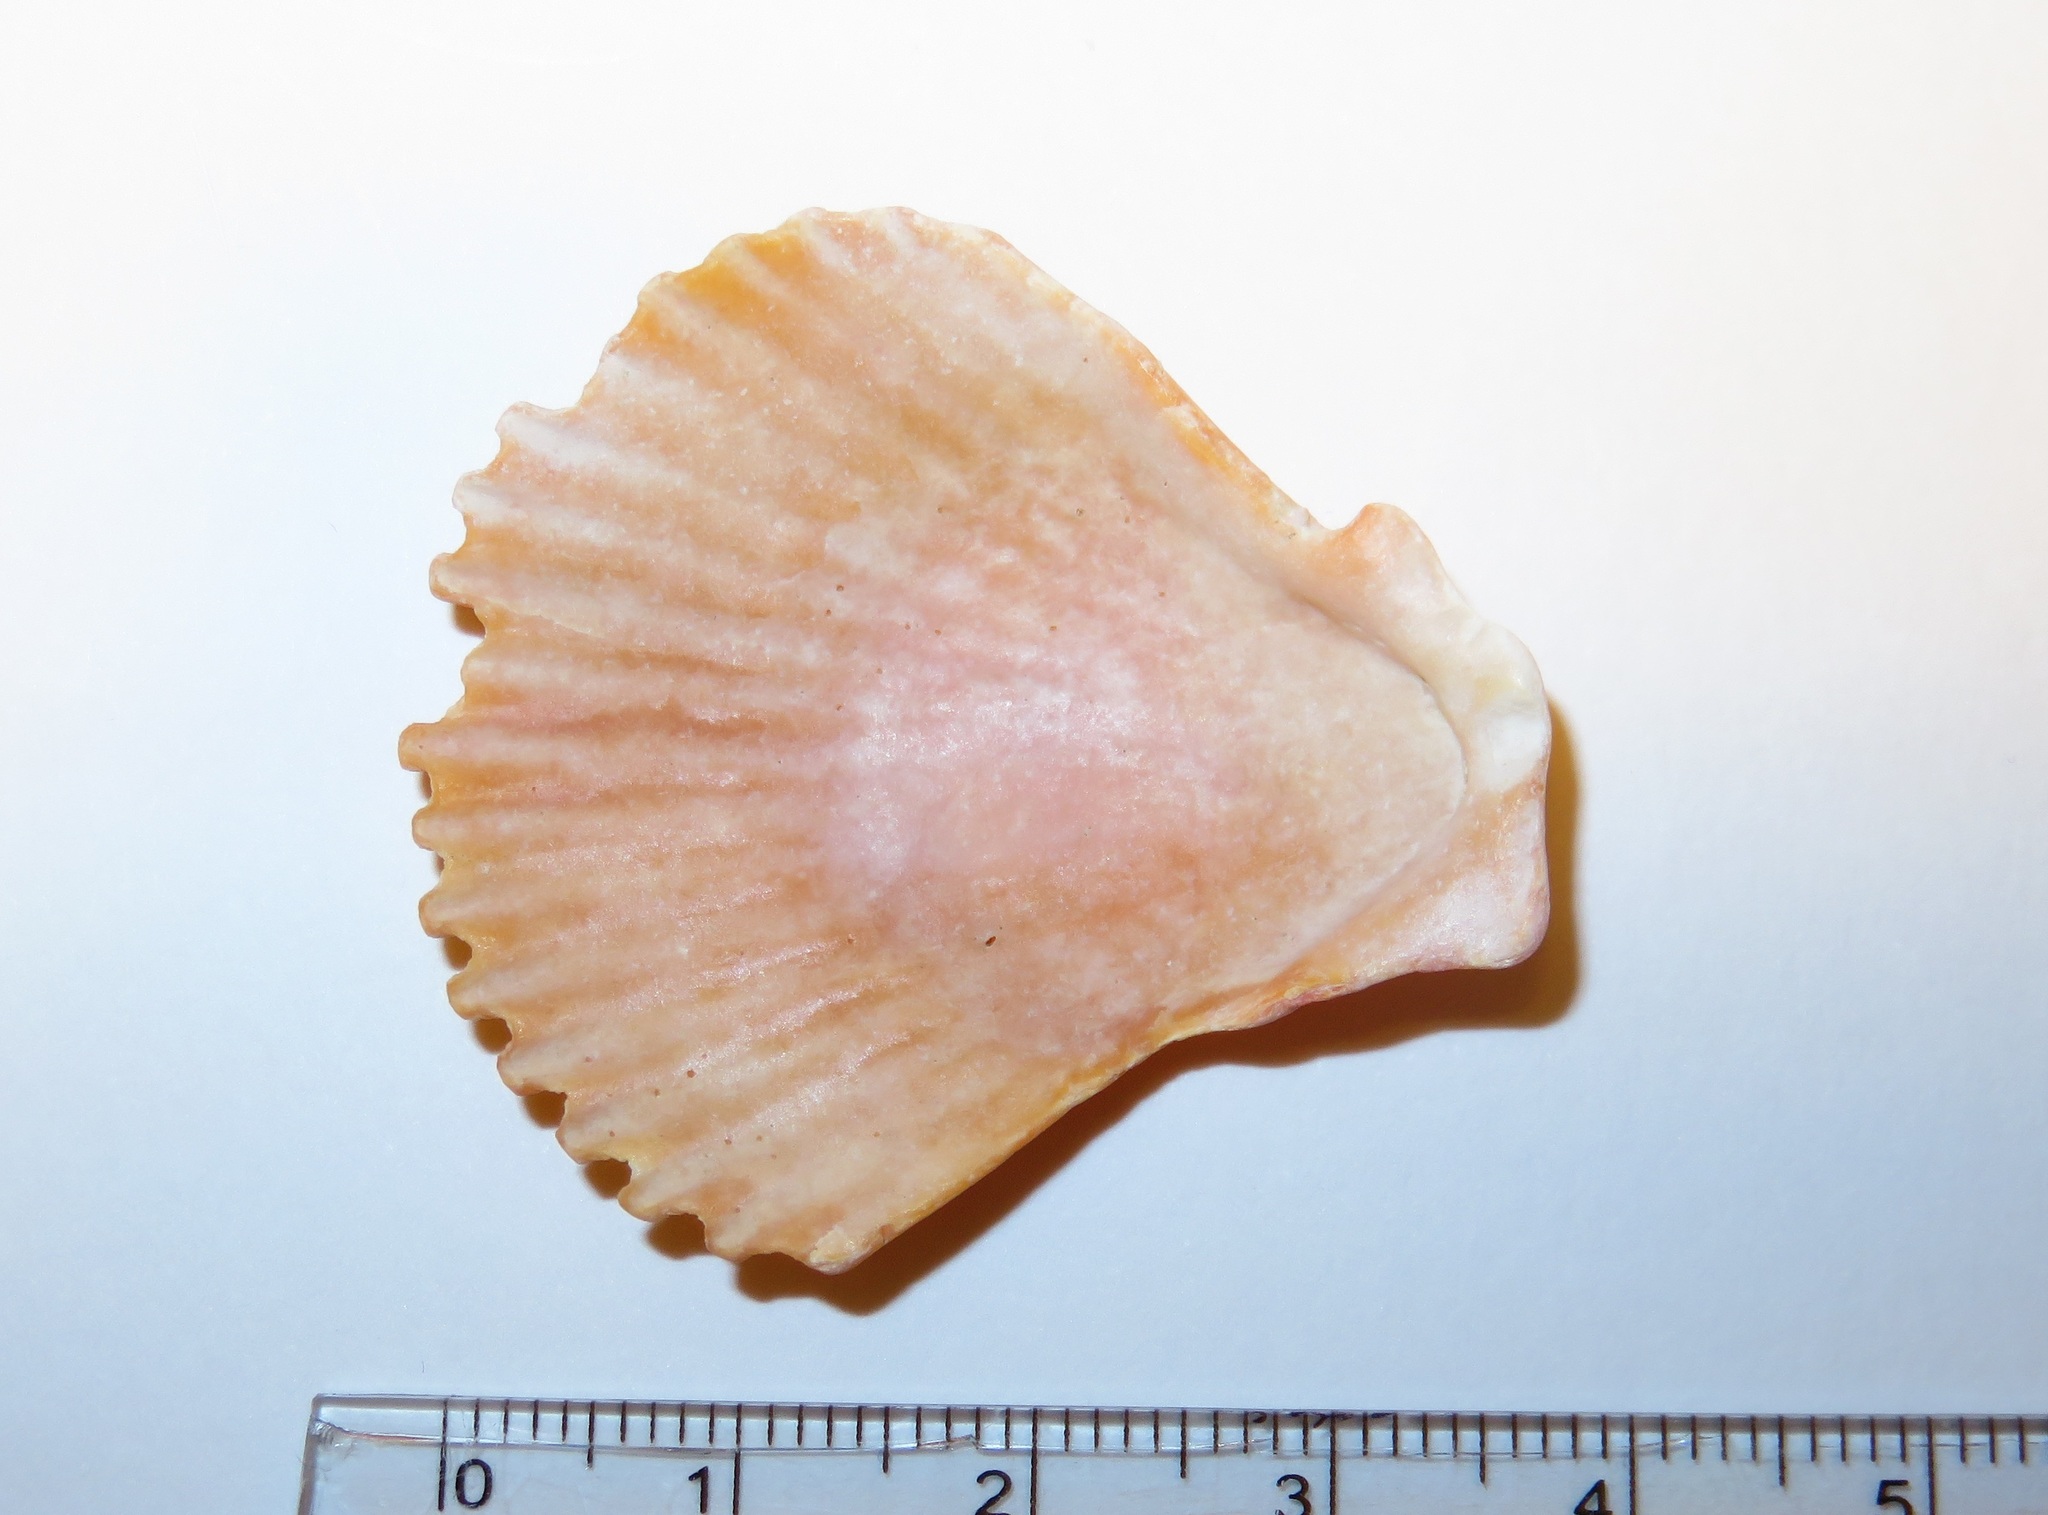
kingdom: Animalia
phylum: Mollusca
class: Bivalvia
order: Pectinida
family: Pectinidae
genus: Mimachlamys
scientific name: Mimachlamys crassicostata
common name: Noble scallop
